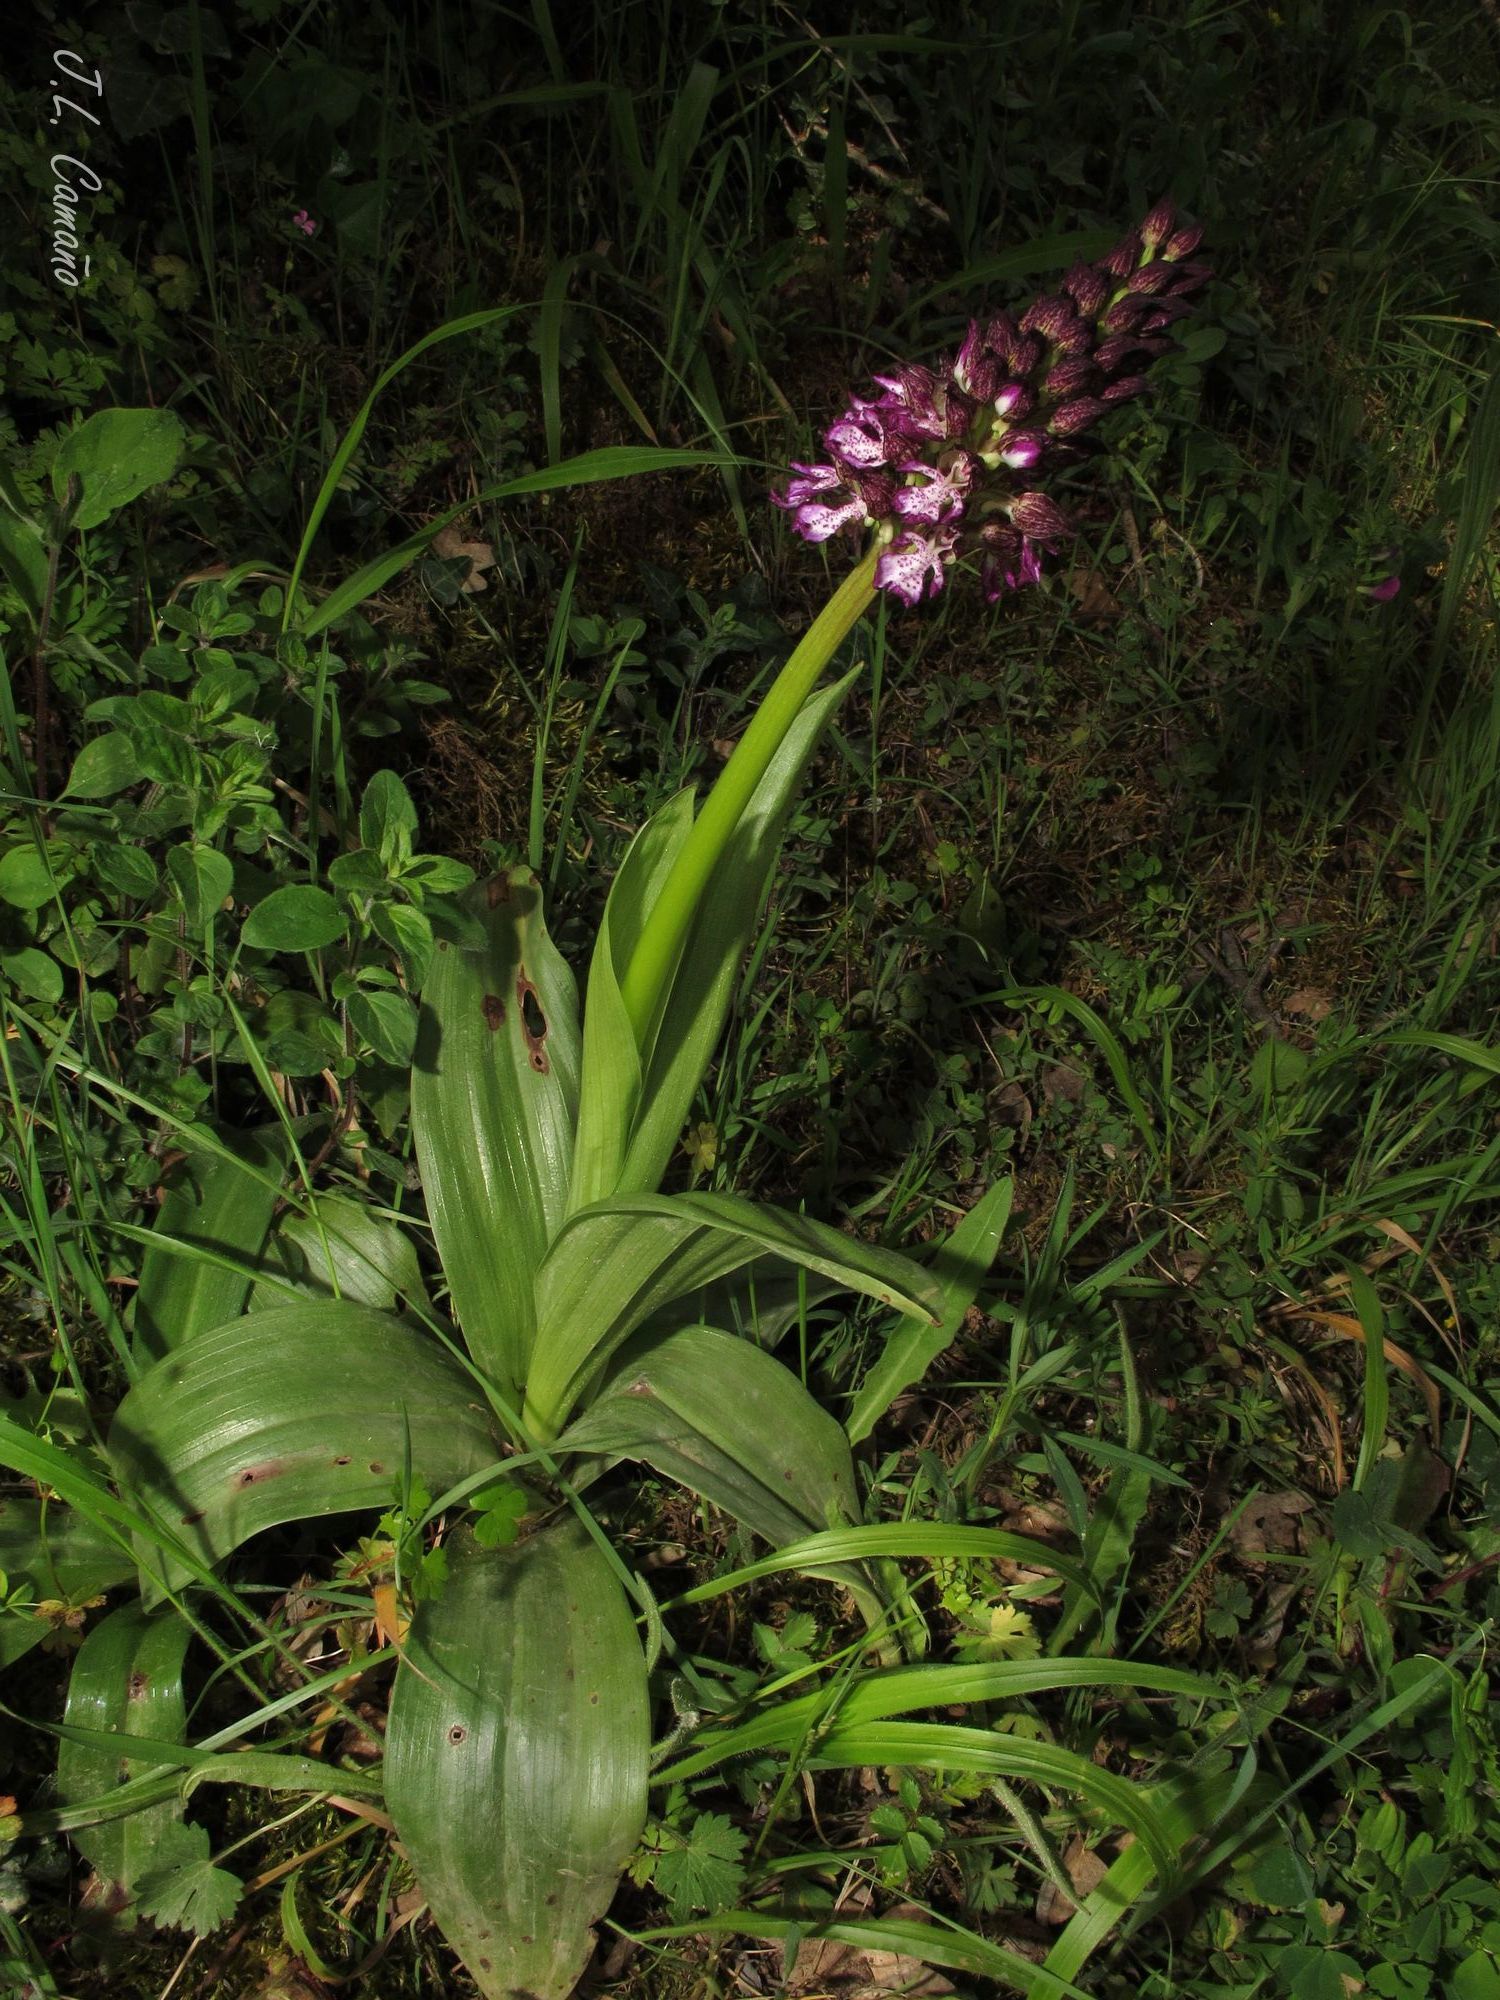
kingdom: Plantae
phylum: Tracheophyta
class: Liliopsida
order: Asparagales
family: Orchidaceae
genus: Orchis
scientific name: Orchis purpurea
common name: Lady orchid
